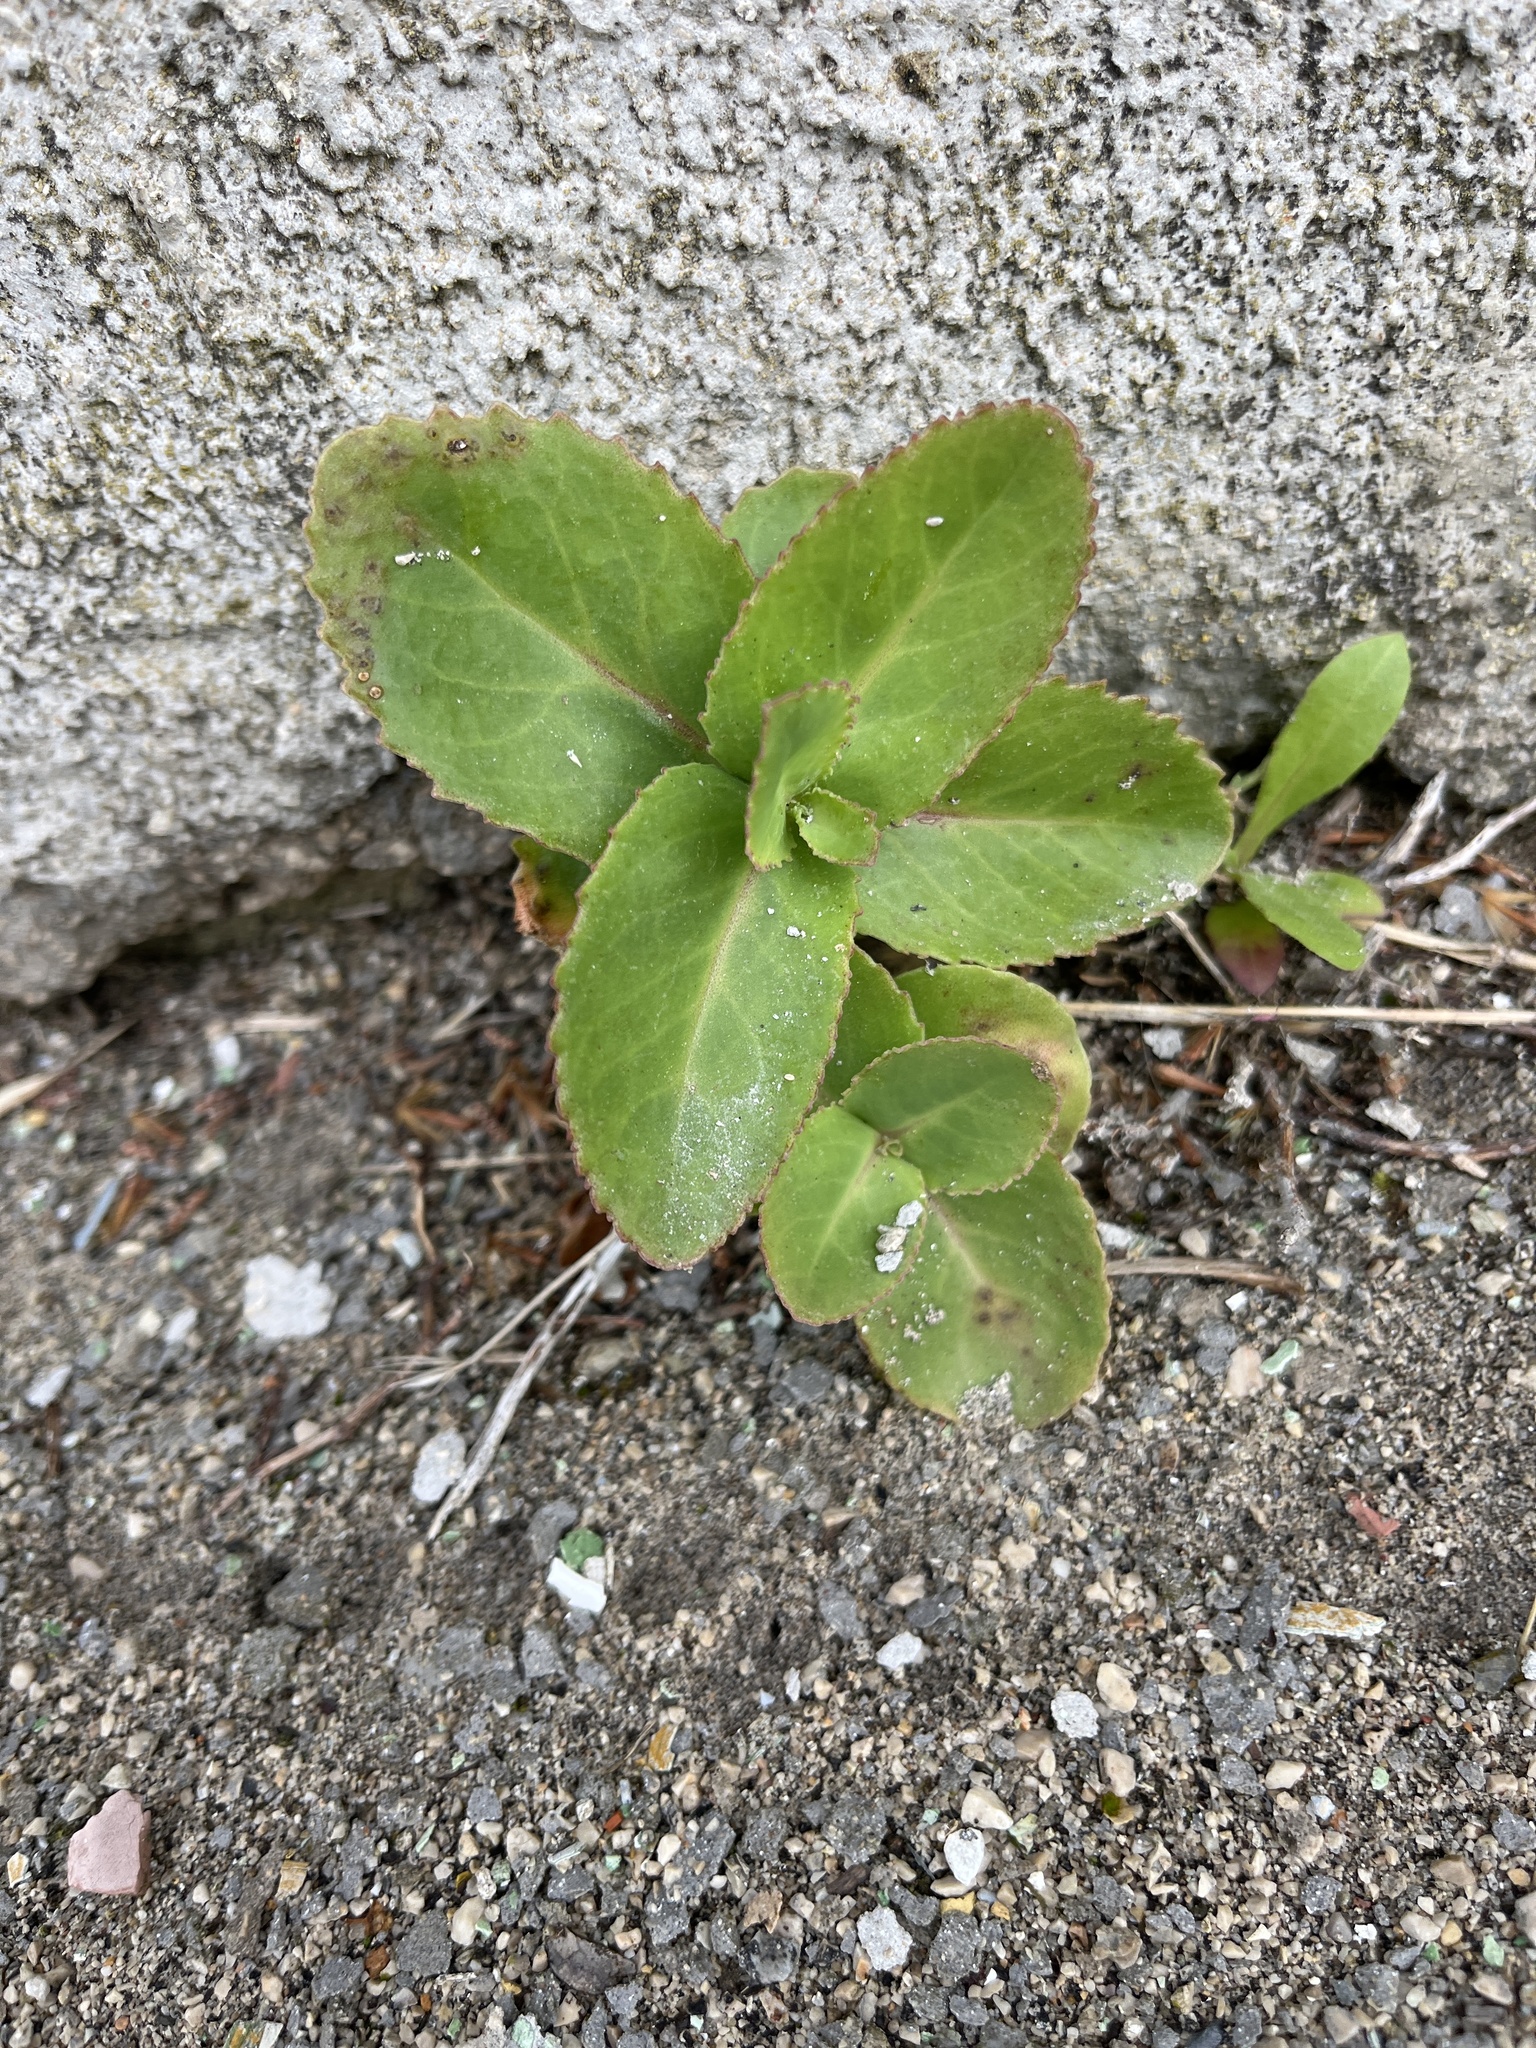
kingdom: Plantae
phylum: Tracheophyta
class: Magnoliopsida
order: Saxifragales
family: Crassulaceae
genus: Hylotelephium
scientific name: Hylotelephium maximum
